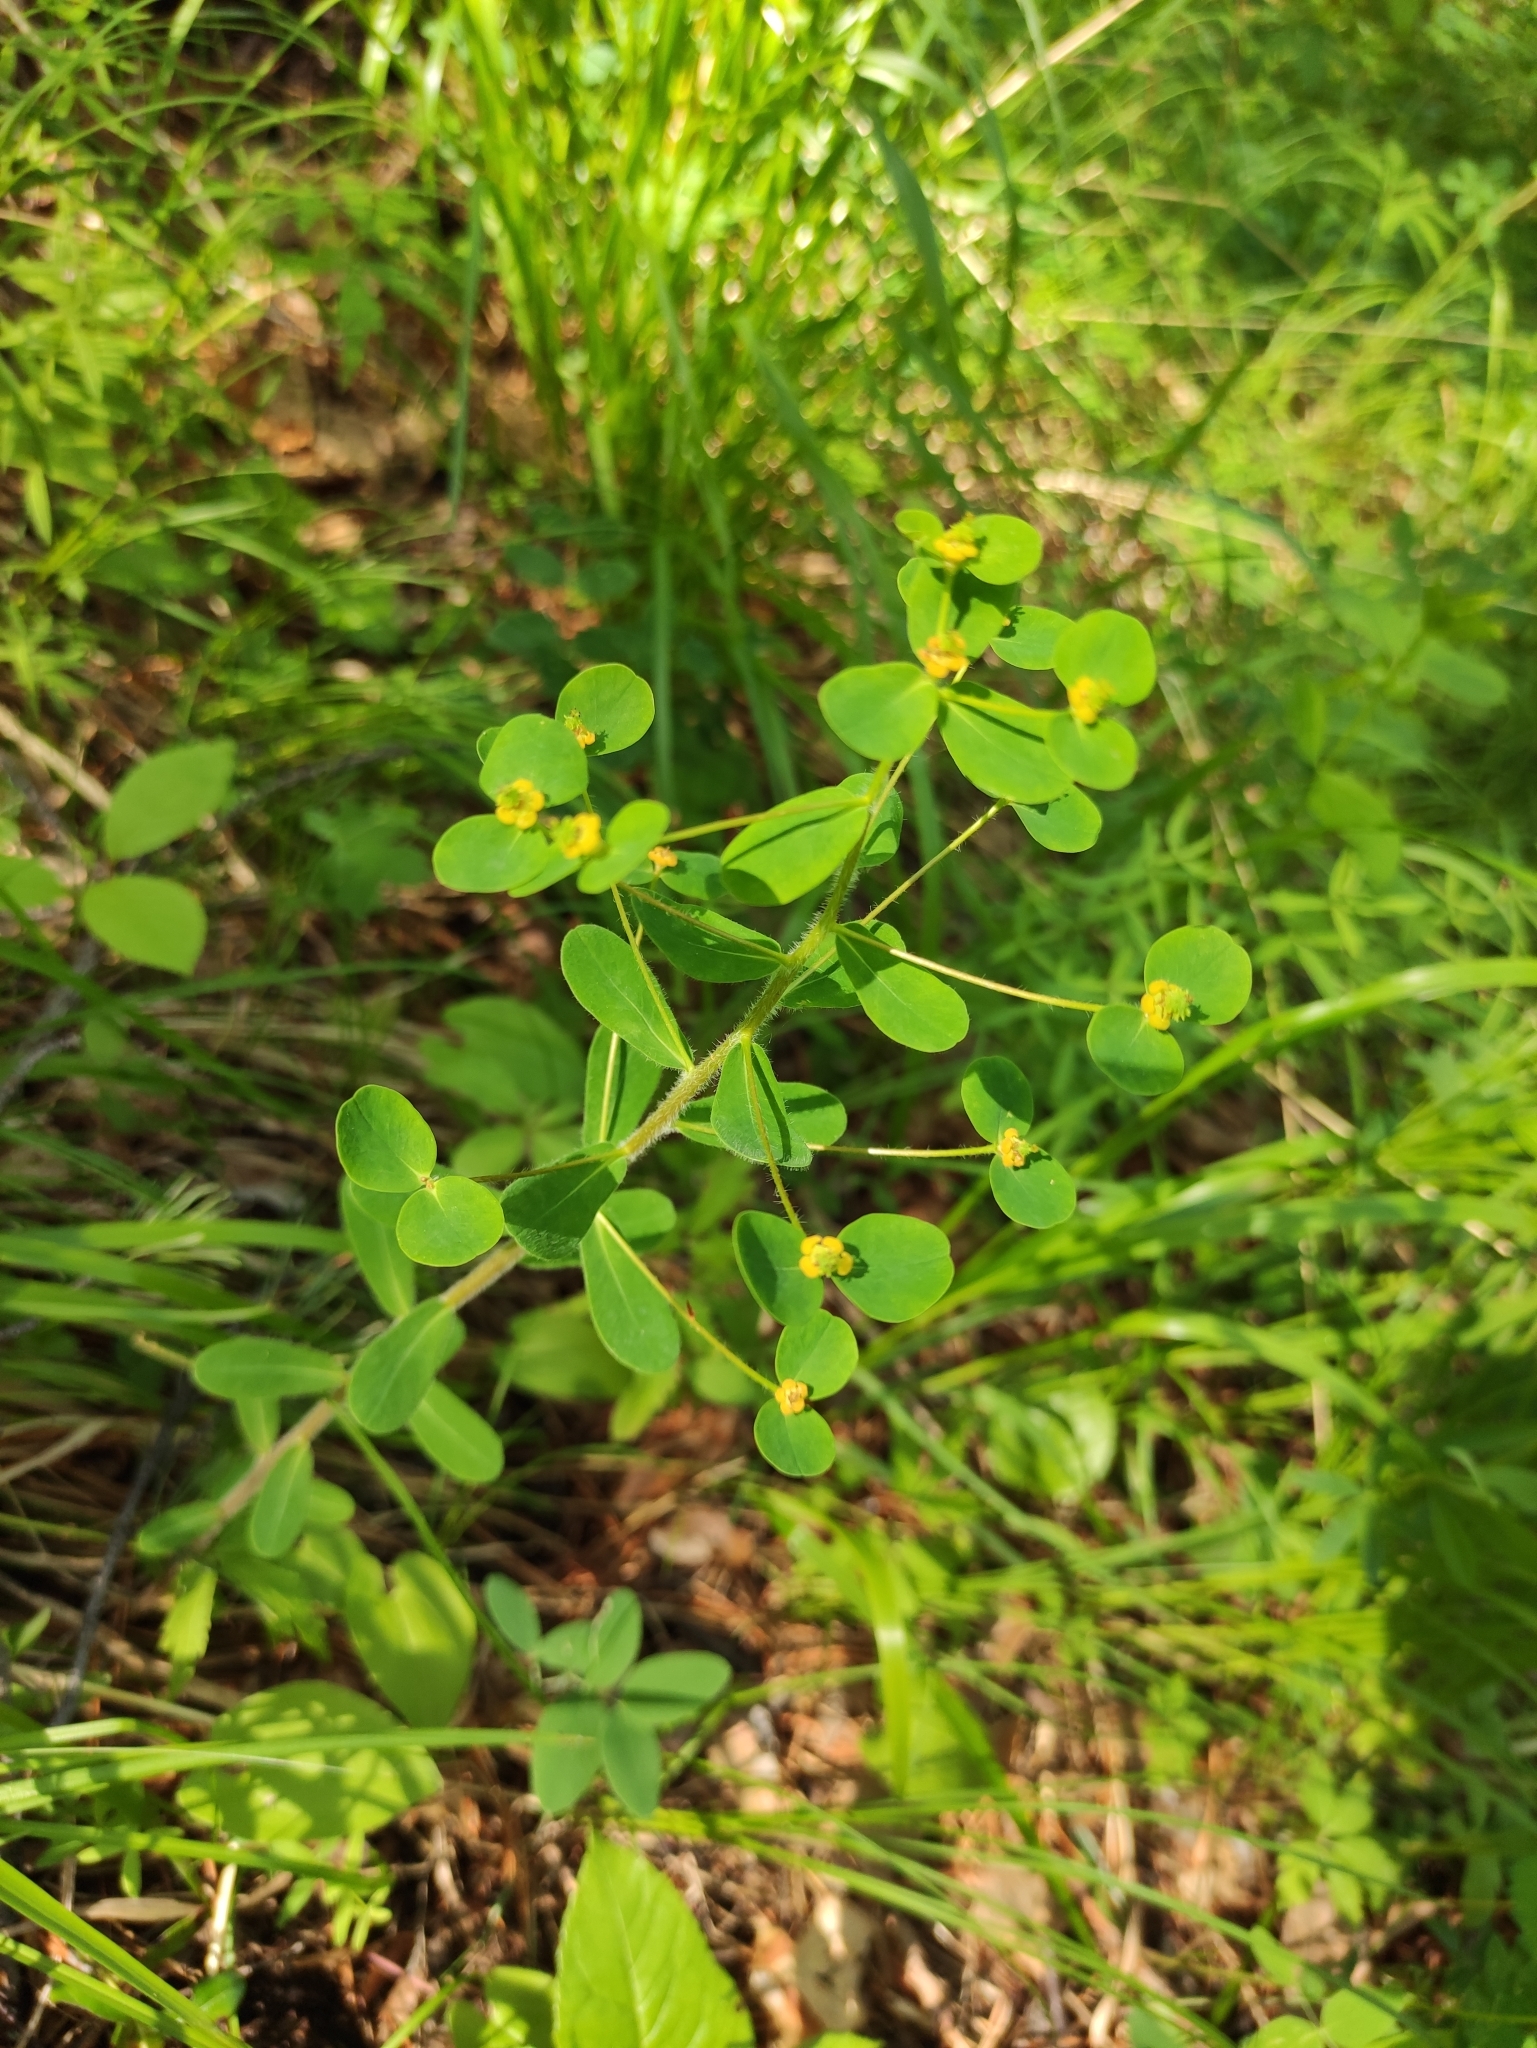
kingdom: Plantae
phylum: Tracheophyta
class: Magnoliopsida
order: Malpighiales
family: Euphorbiaceae
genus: Euphorbia
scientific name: Euphorbia jenisseiensis
